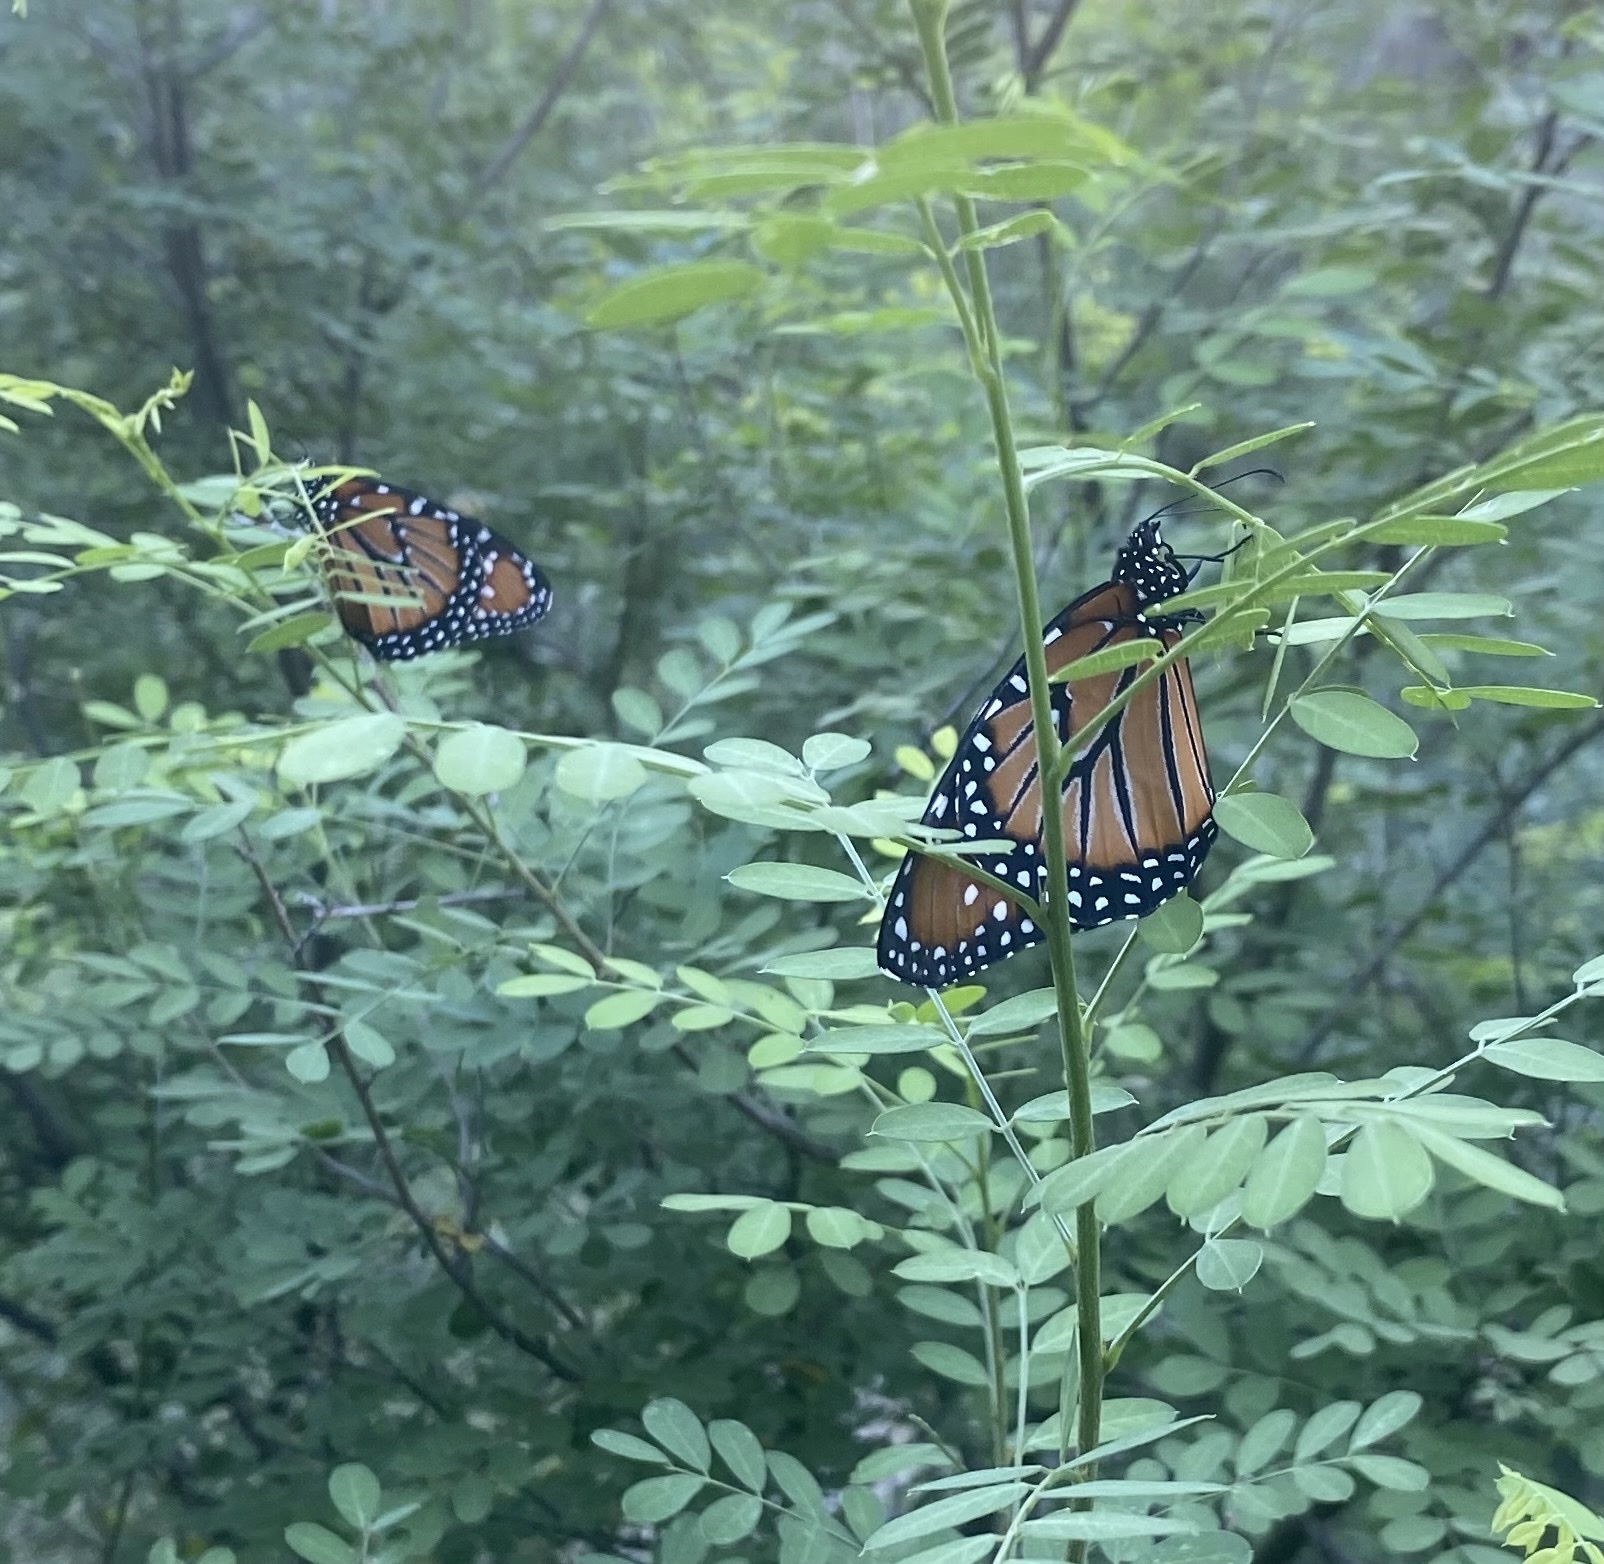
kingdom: Animalia
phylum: Arthropoda
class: Insecta
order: Lepidoptera
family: Nymphalidae
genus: Danaus
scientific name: Danaus gilippus
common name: Queen
